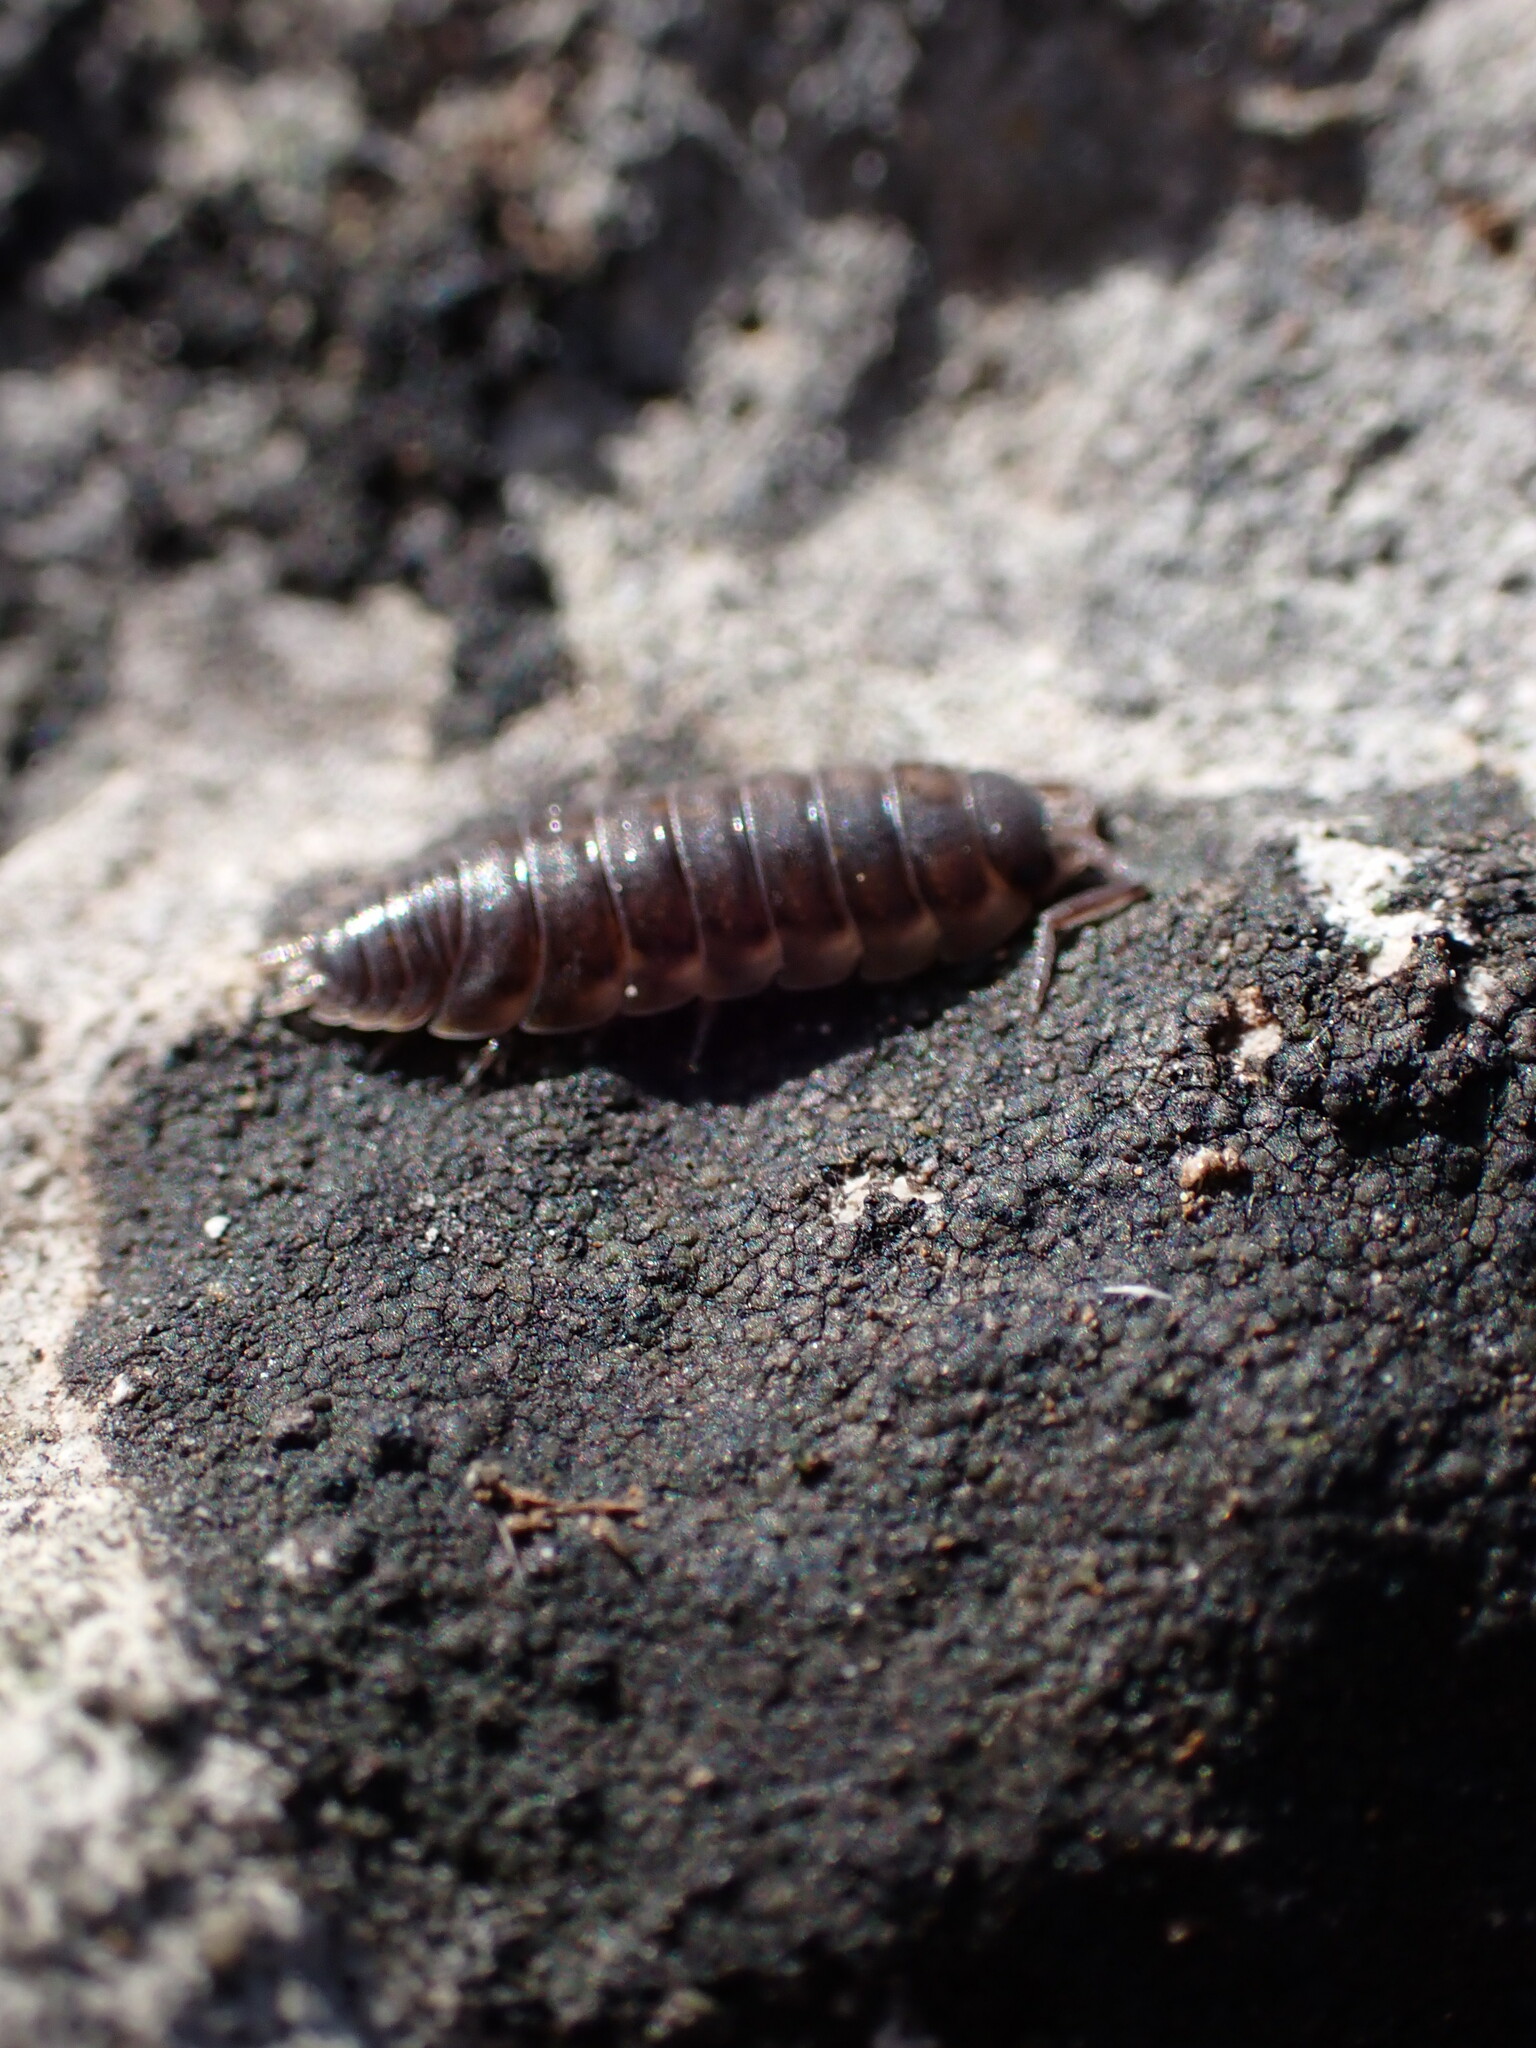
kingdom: Animalia
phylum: Arthropoda
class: Malacostraca
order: Isopoda
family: Porcellionidae
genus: Porcellio
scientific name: Porcellio orarum
